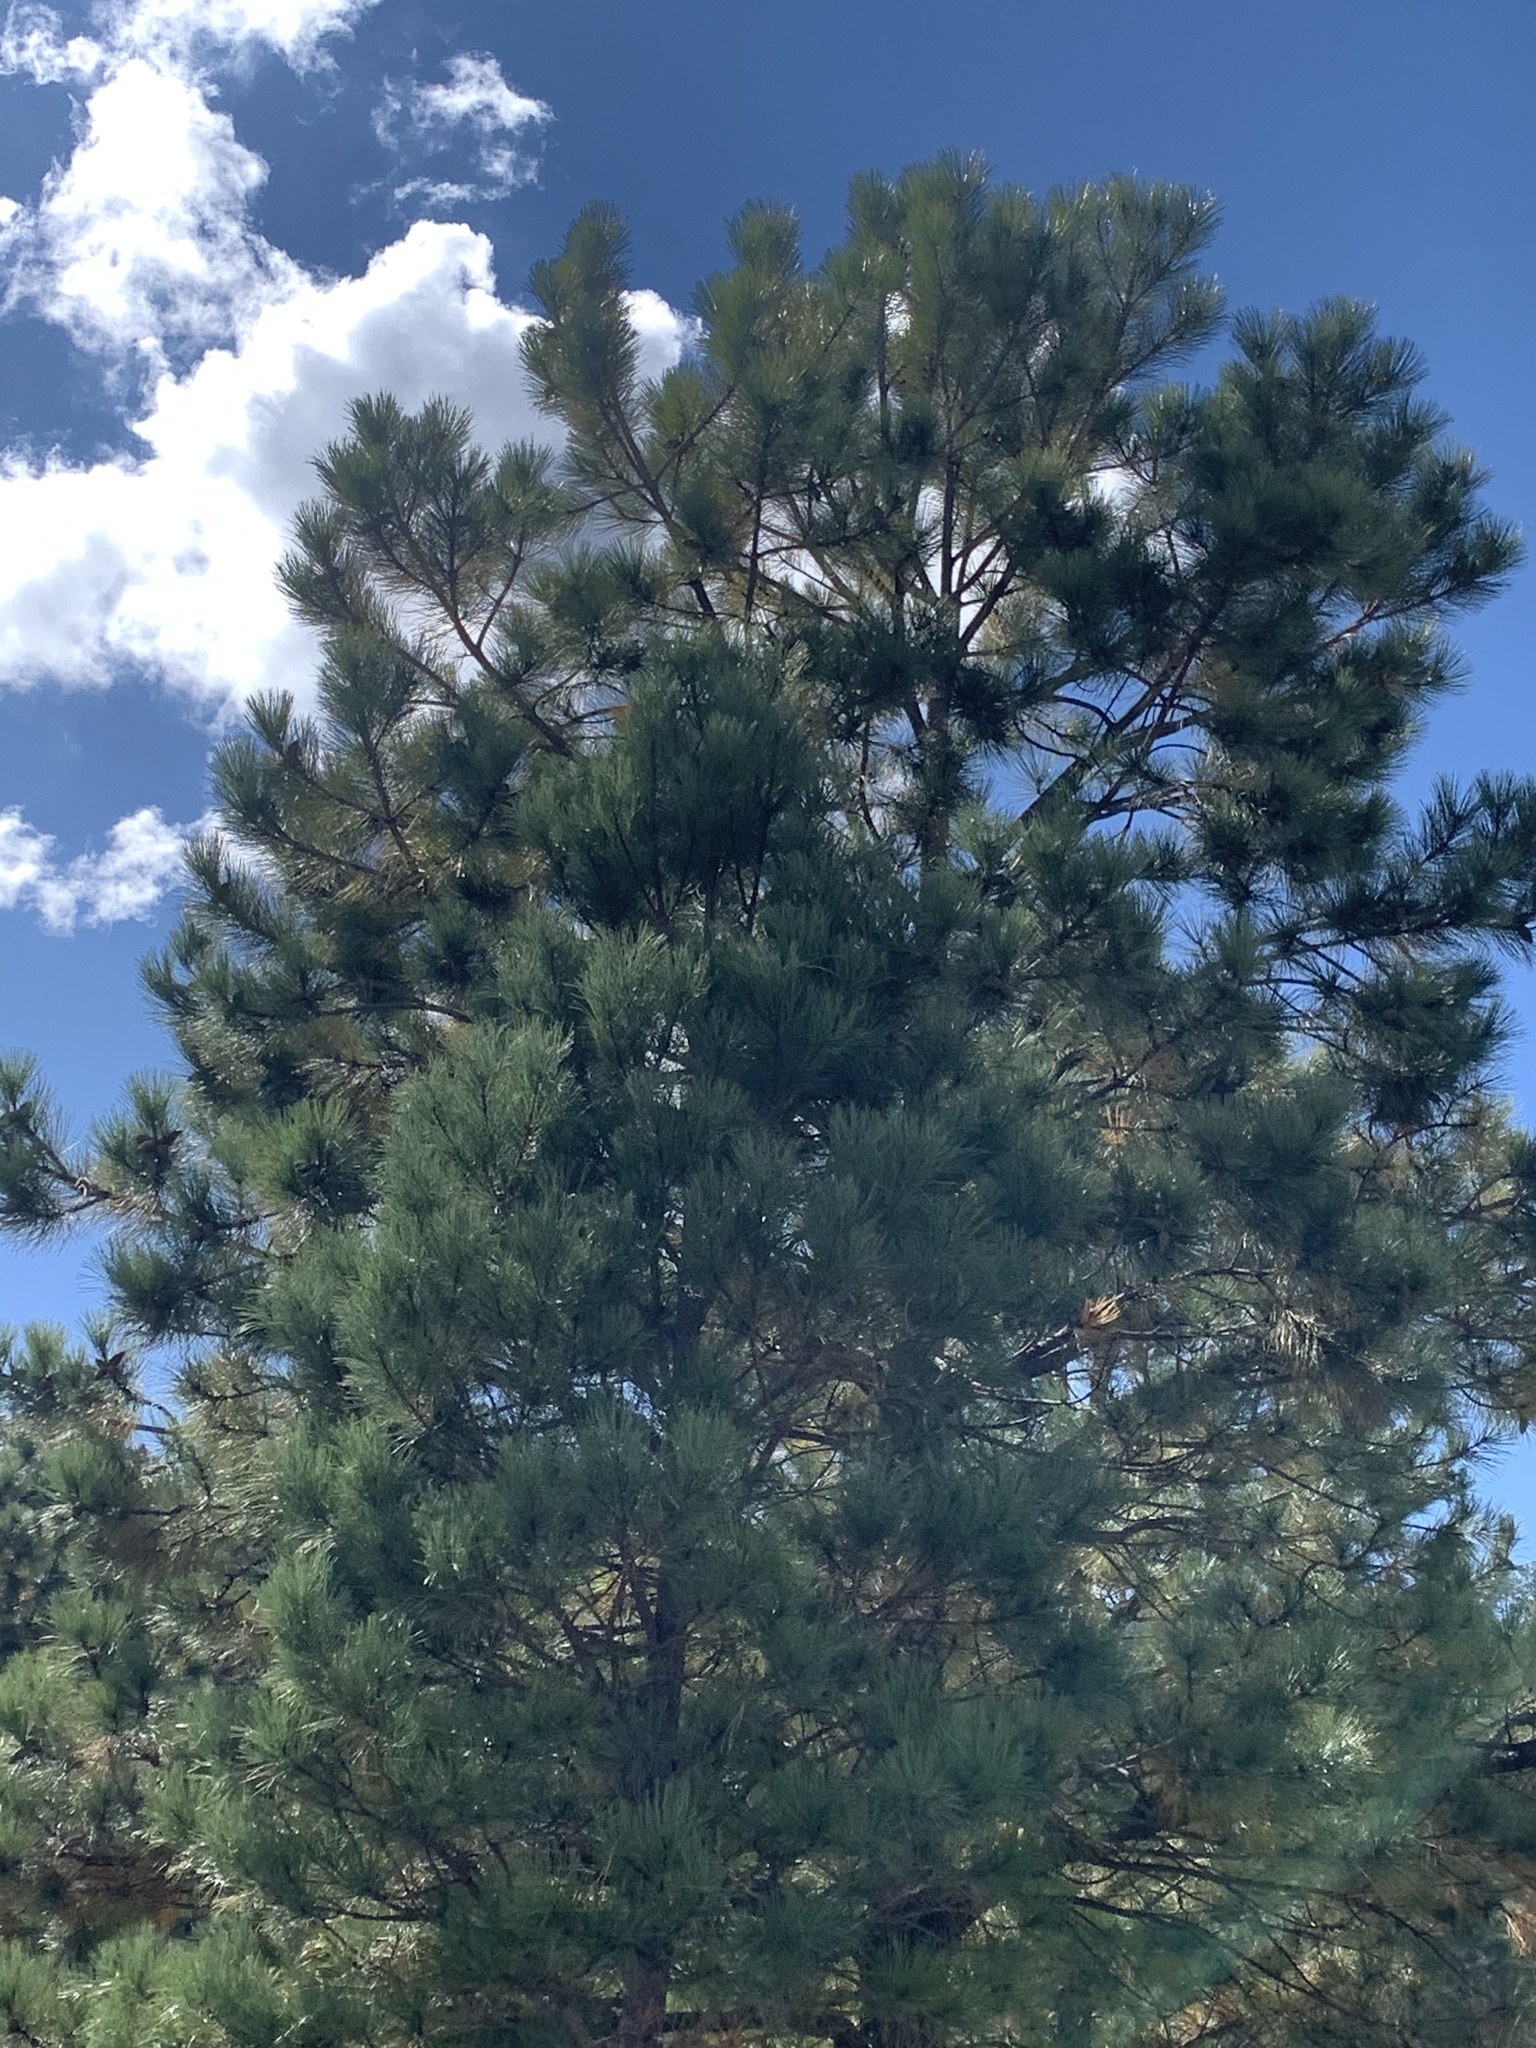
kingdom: Plantae
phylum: Tracheophyta
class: Pinopsida
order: Pinales
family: Pinaceae
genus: Pinus
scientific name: Pinus ponderosa
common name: Western yellow-pine
